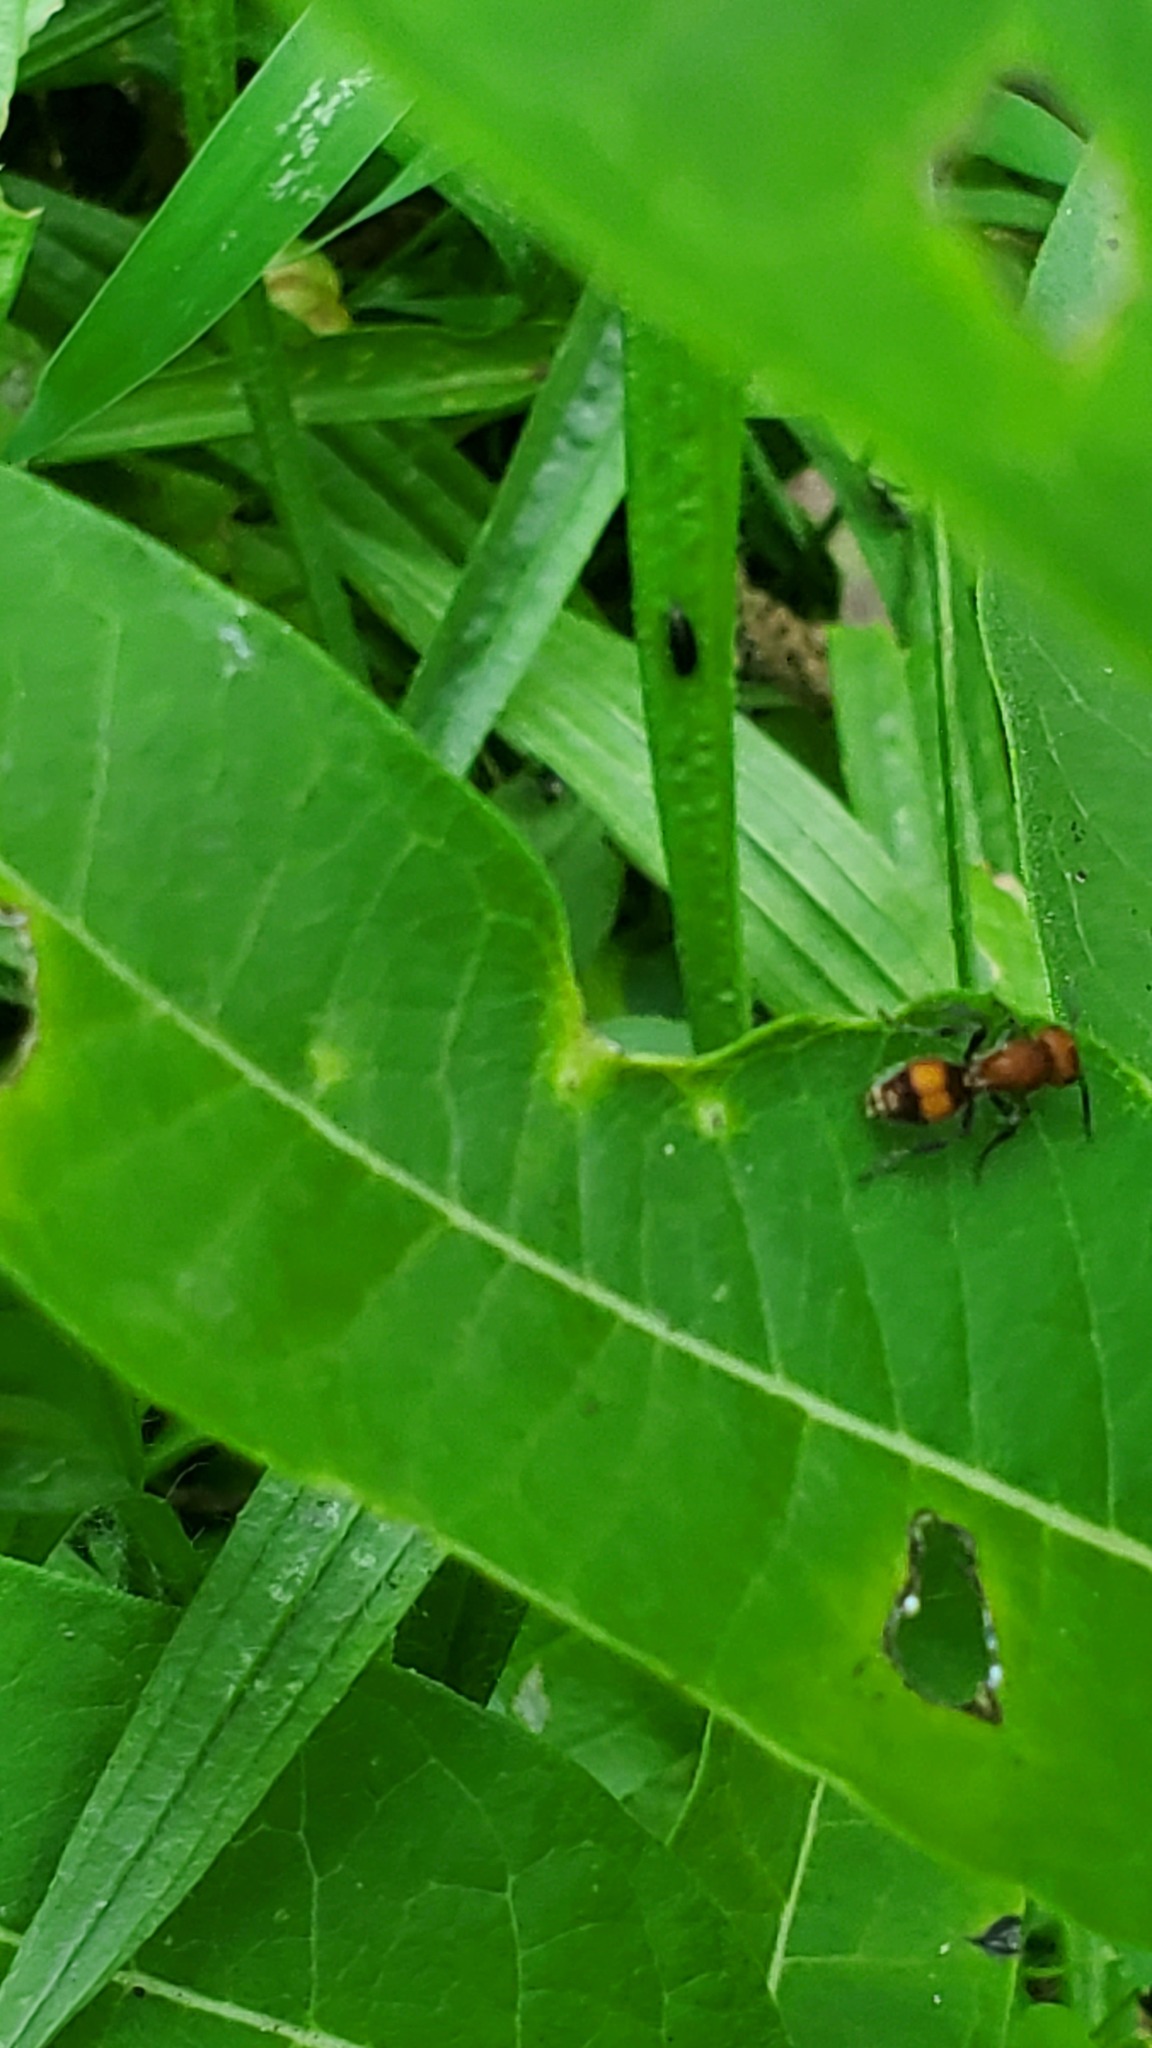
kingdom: Animalia
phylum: Arthropoda
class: Insecta
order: Hymenoptera
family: Mutillidae
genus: Dasymutilla
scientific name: Dasymutilla
